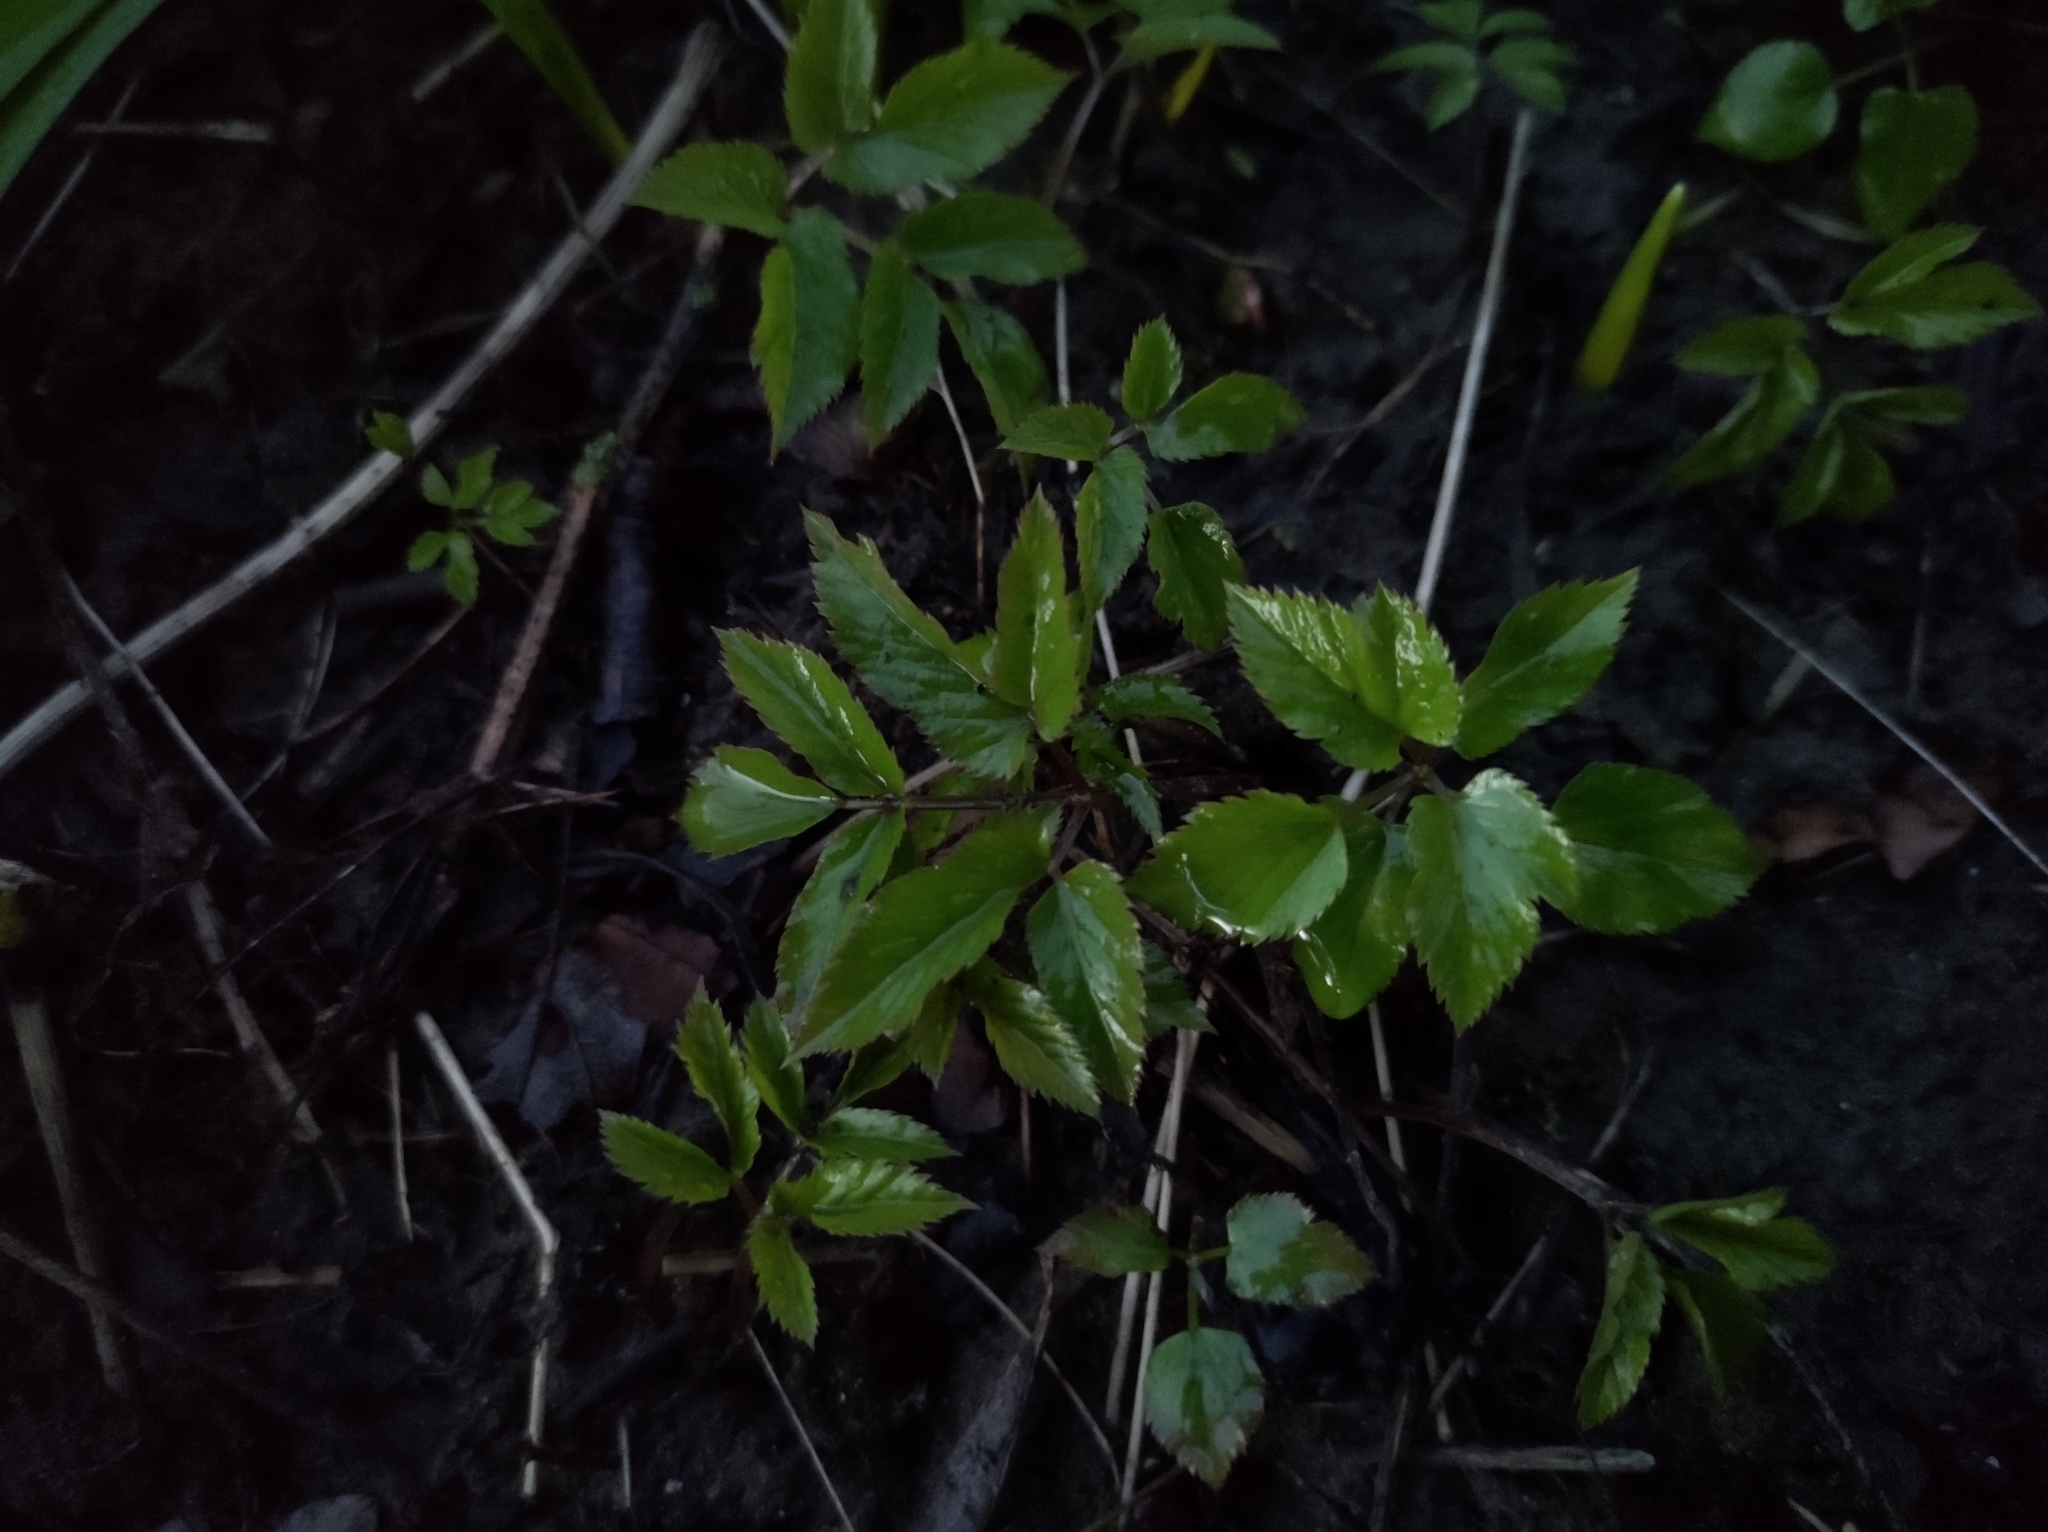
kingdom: Plantae
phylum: Tracheophyta
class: Magnoliopsida
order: Apiales
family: Apiaceae
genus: Aegopodium
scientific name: Aegopodium podagraria
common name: Ground-elder
